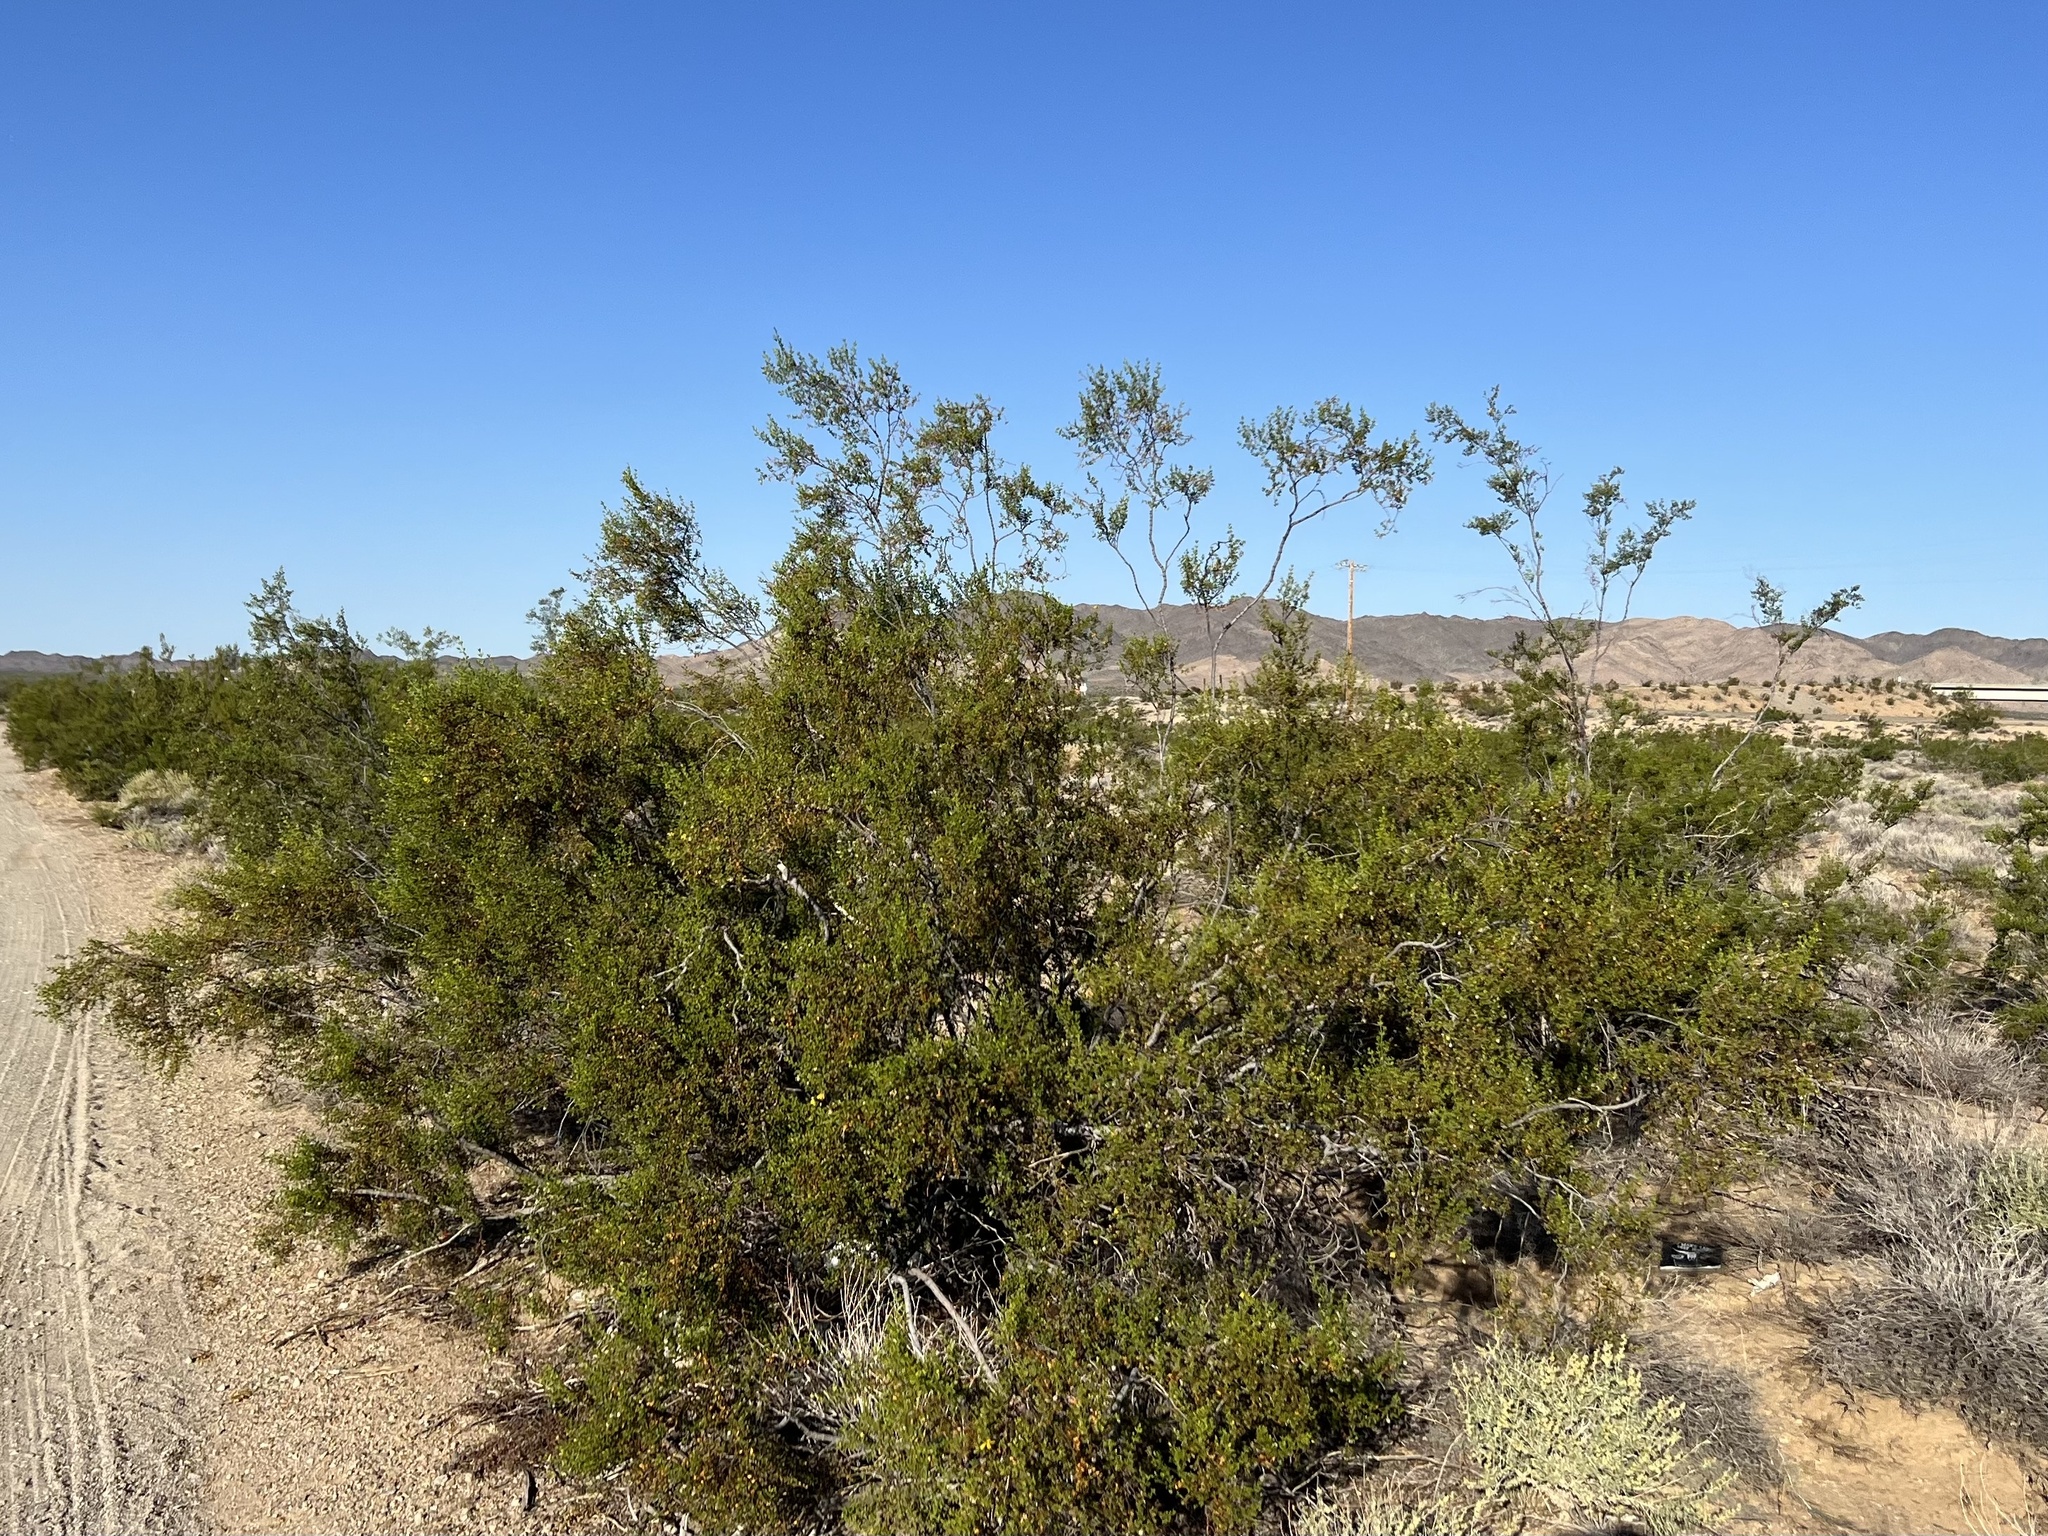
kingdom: Plantae
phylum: Tracheophyta
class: Magnoliopsida
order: Zygophyllales
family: Zygophyllaceae
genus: Larrea
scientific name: Larrea tridentata
